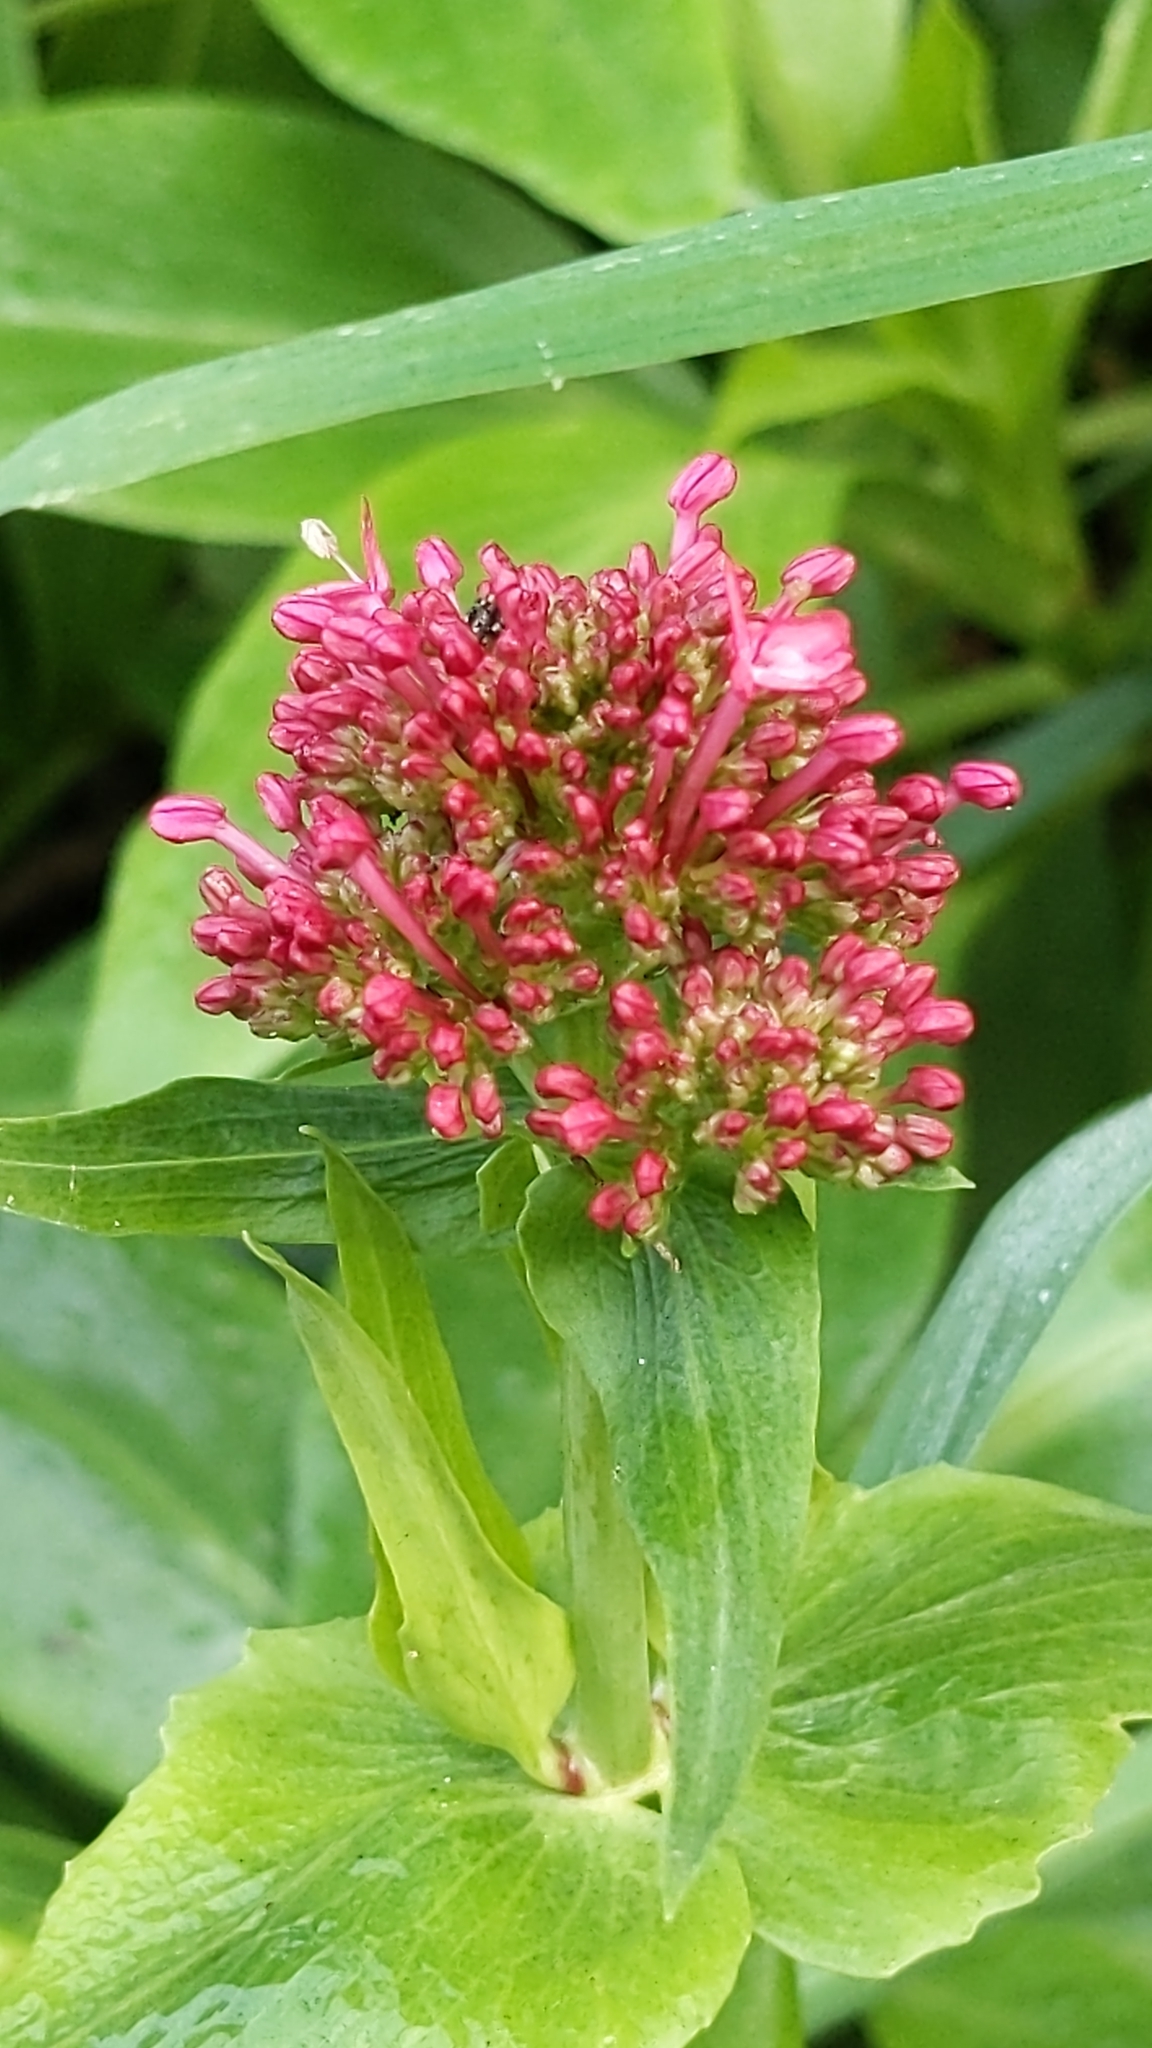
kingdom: Plantae
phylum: Tracheophyta
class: Magnoliopsida
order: Dipsacales
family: Caprifoliaceae
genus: Centranthus
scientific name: Centranthus ruber
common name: Red valerian
